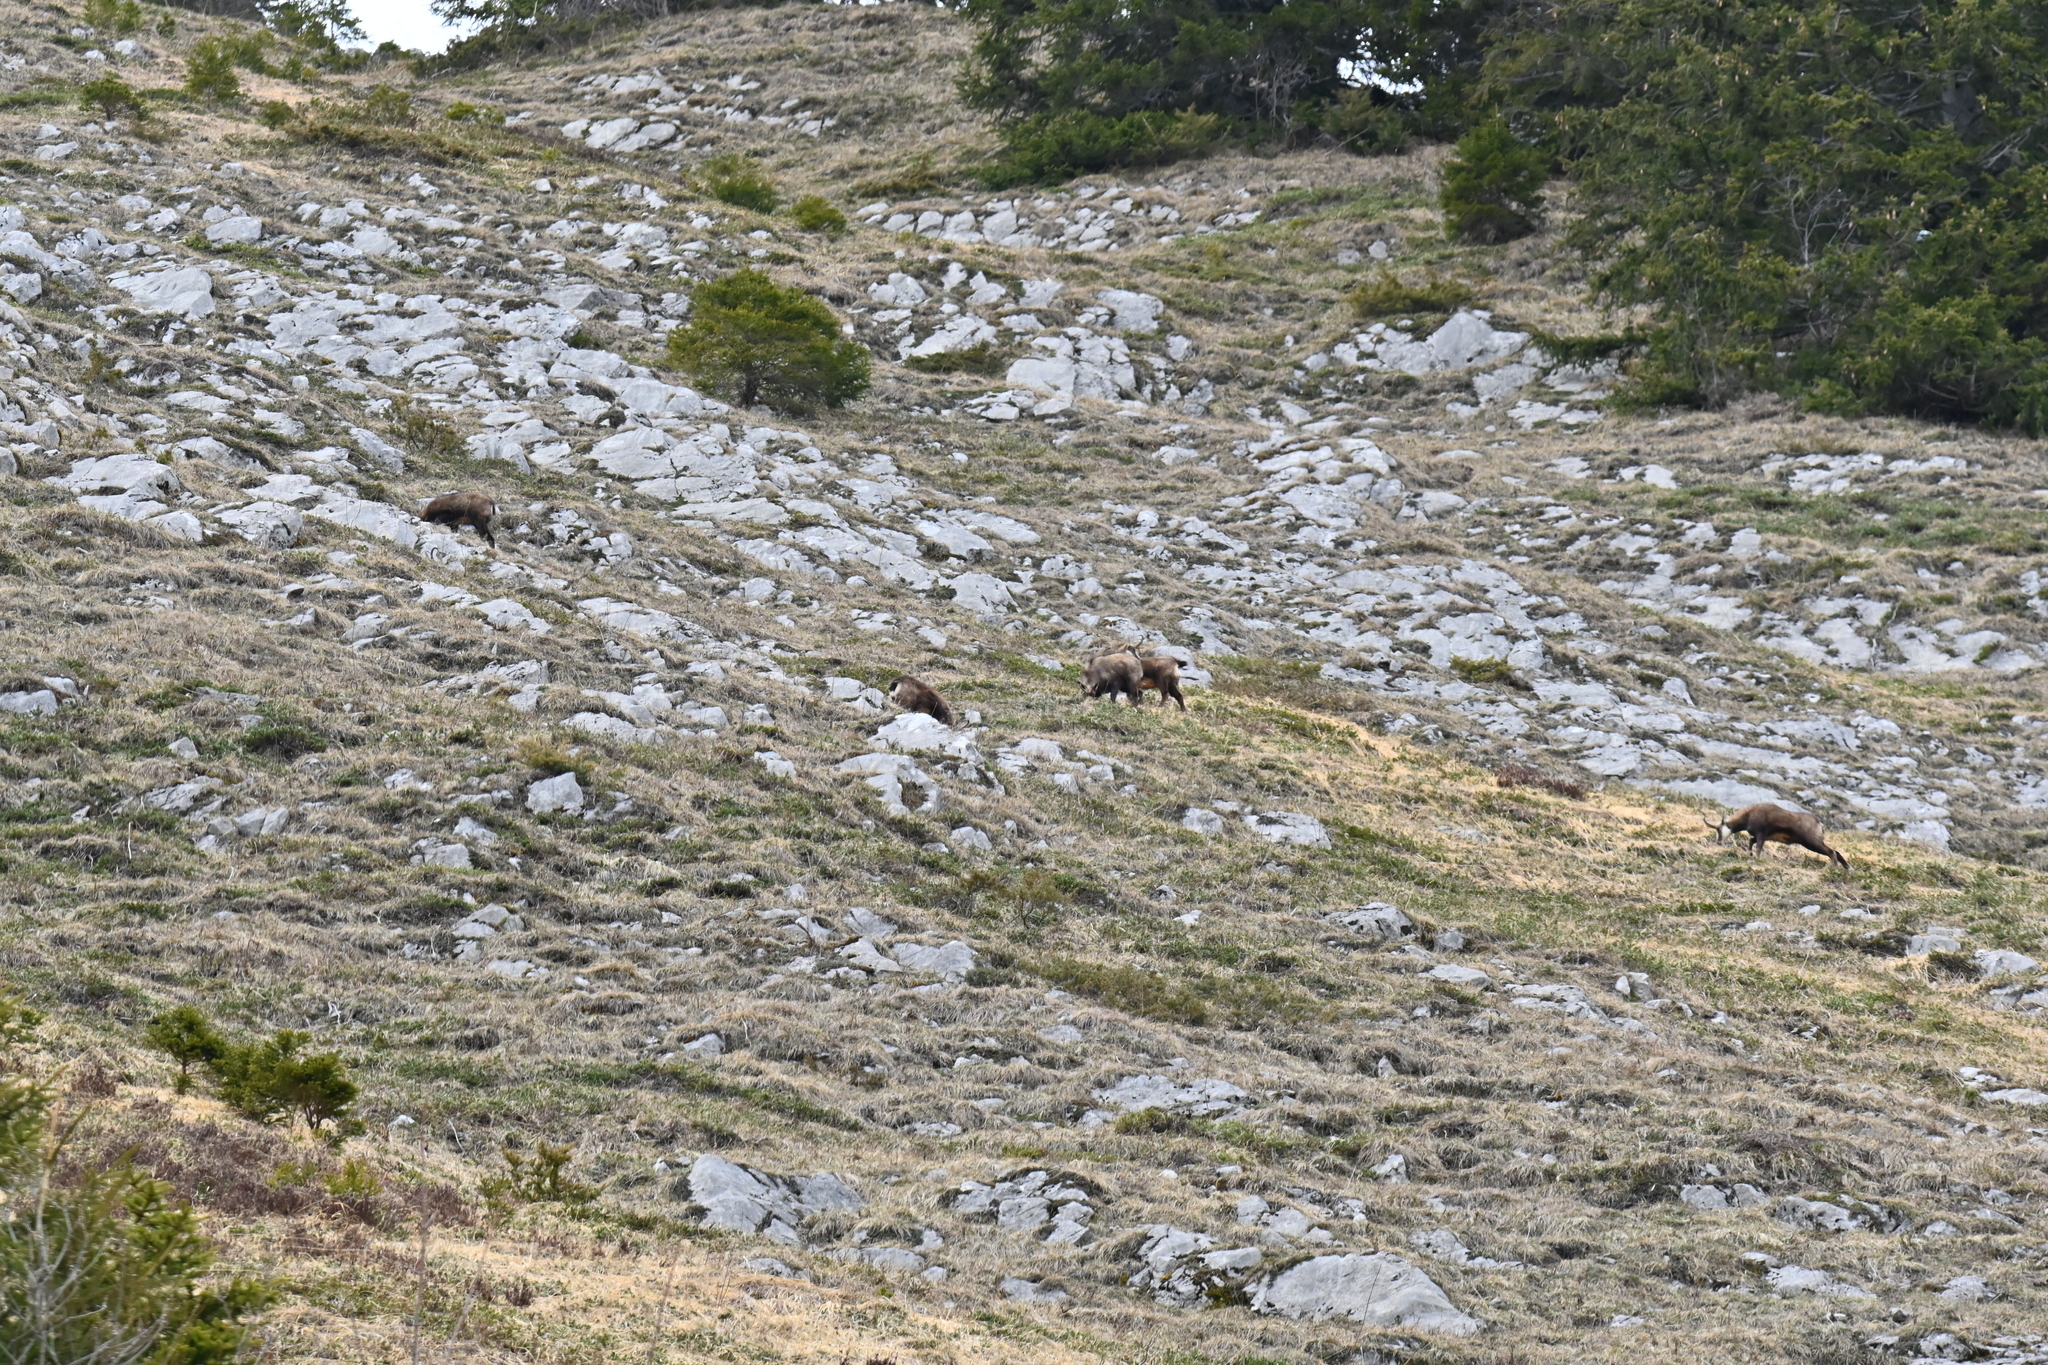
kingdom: Animalia
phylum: Chordata
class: Mammalia
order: Artiodactyla
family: Bovidae
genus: Rupicapra
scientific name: Rupicapra rupicapra
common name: Chamois
